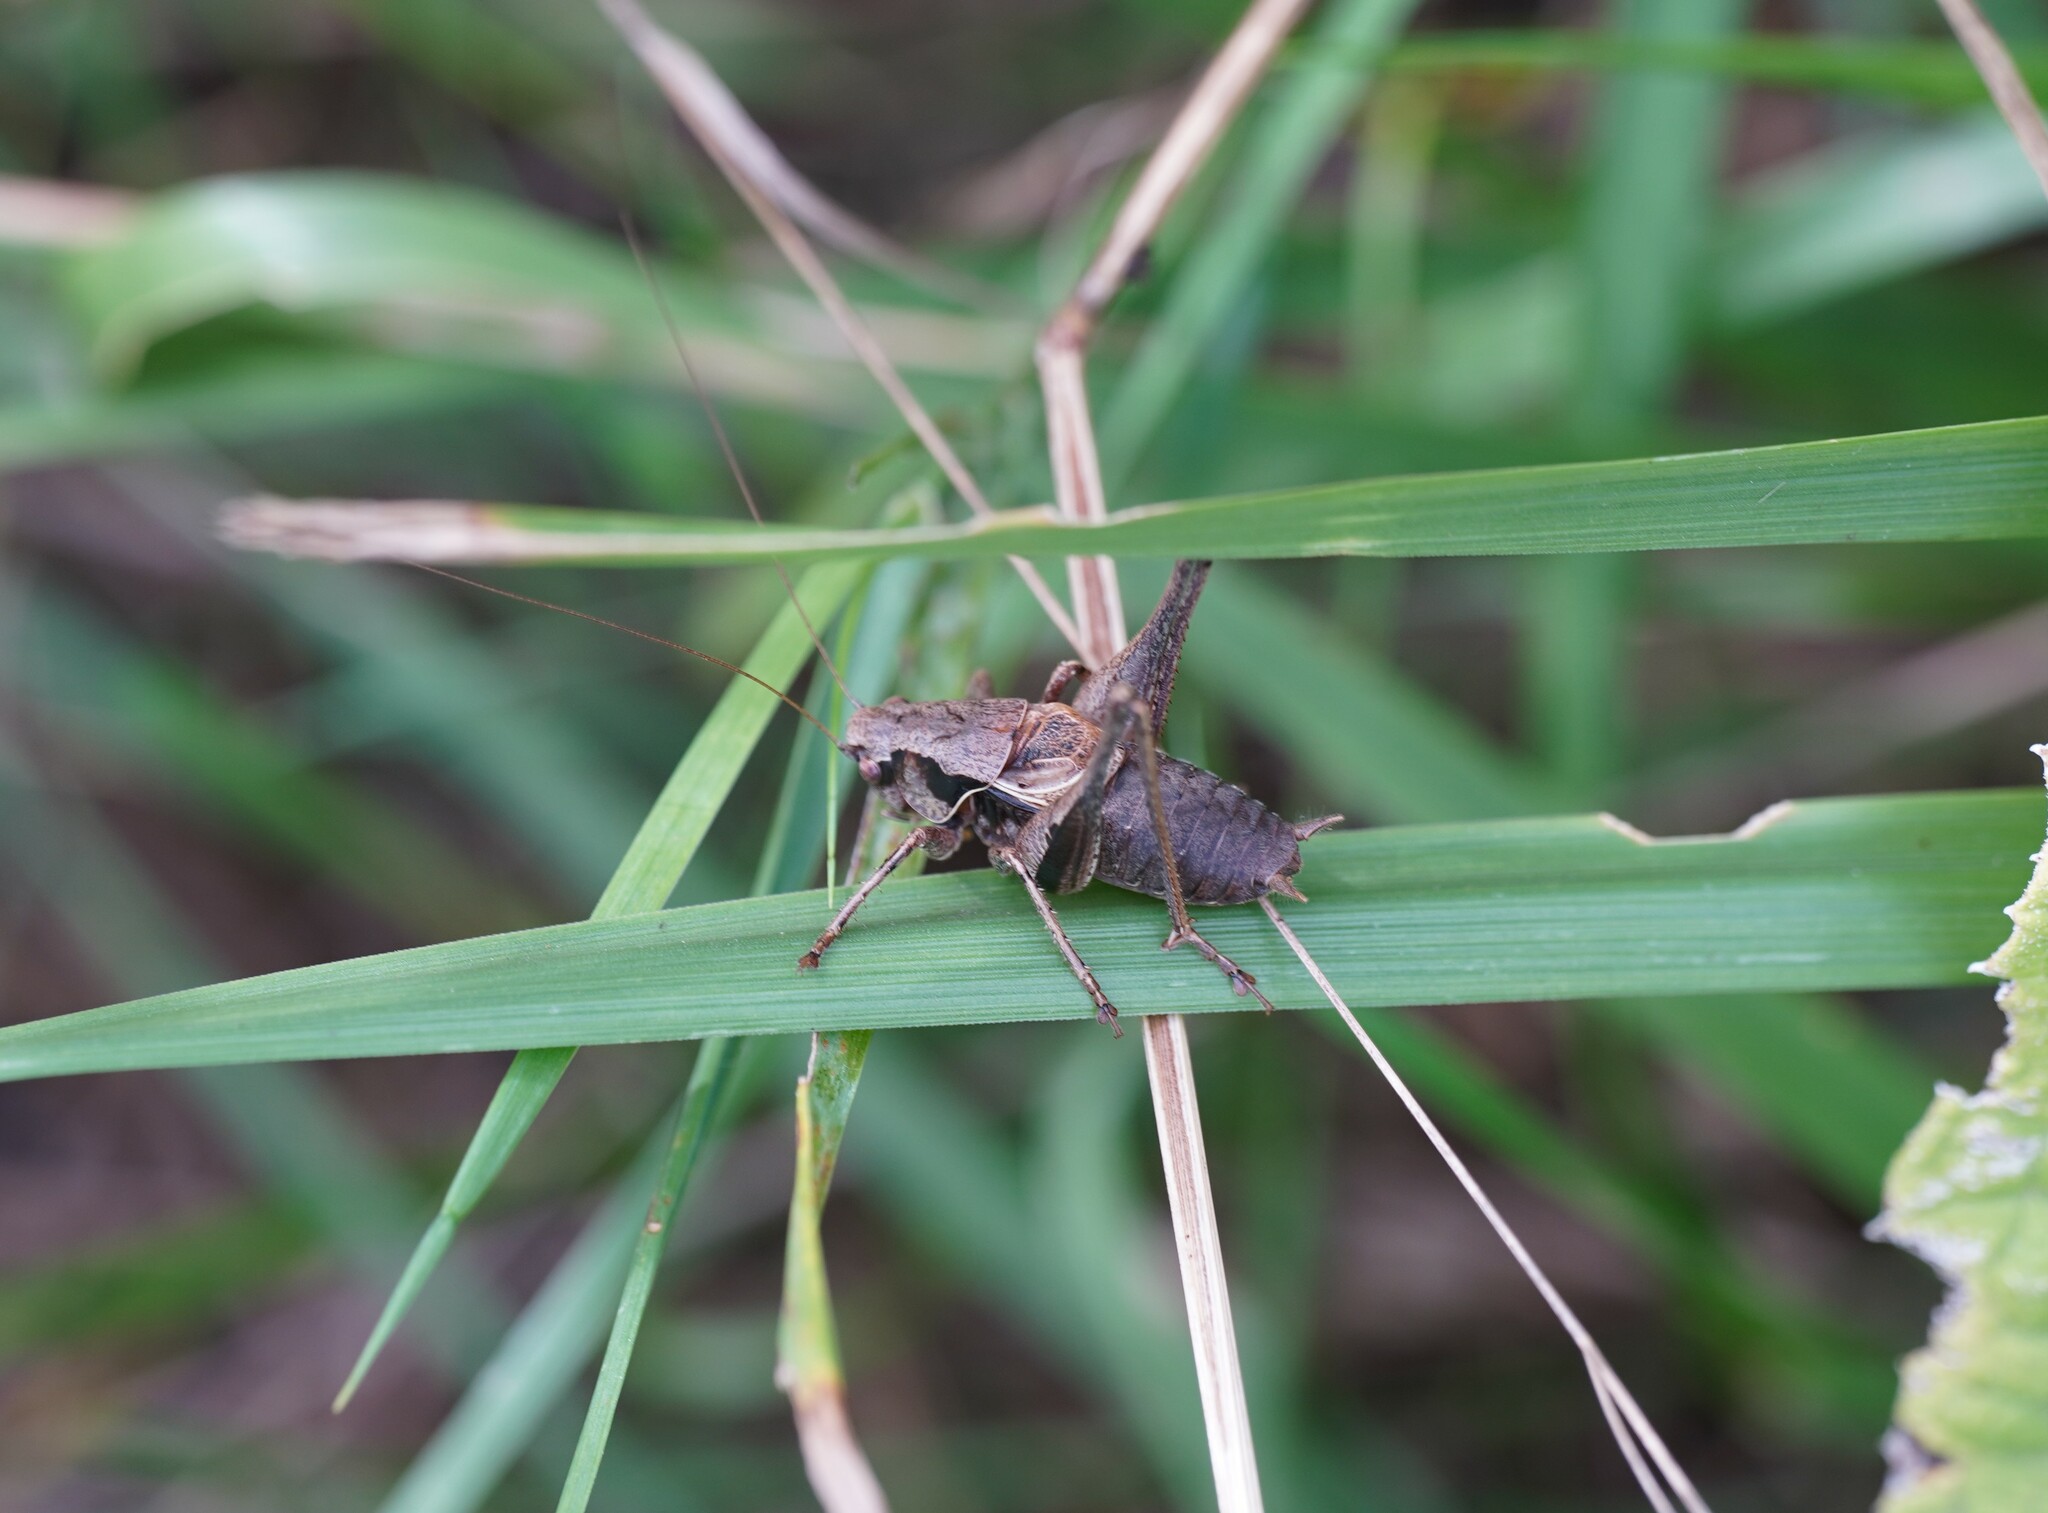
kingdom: Animalia
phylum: Arthropoda
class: Insecta
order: Orthoptera
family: Tettigoniidae
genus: Pholidoptera
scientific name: Pholidoptera griseoaptera
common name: Dark bush-cricket
